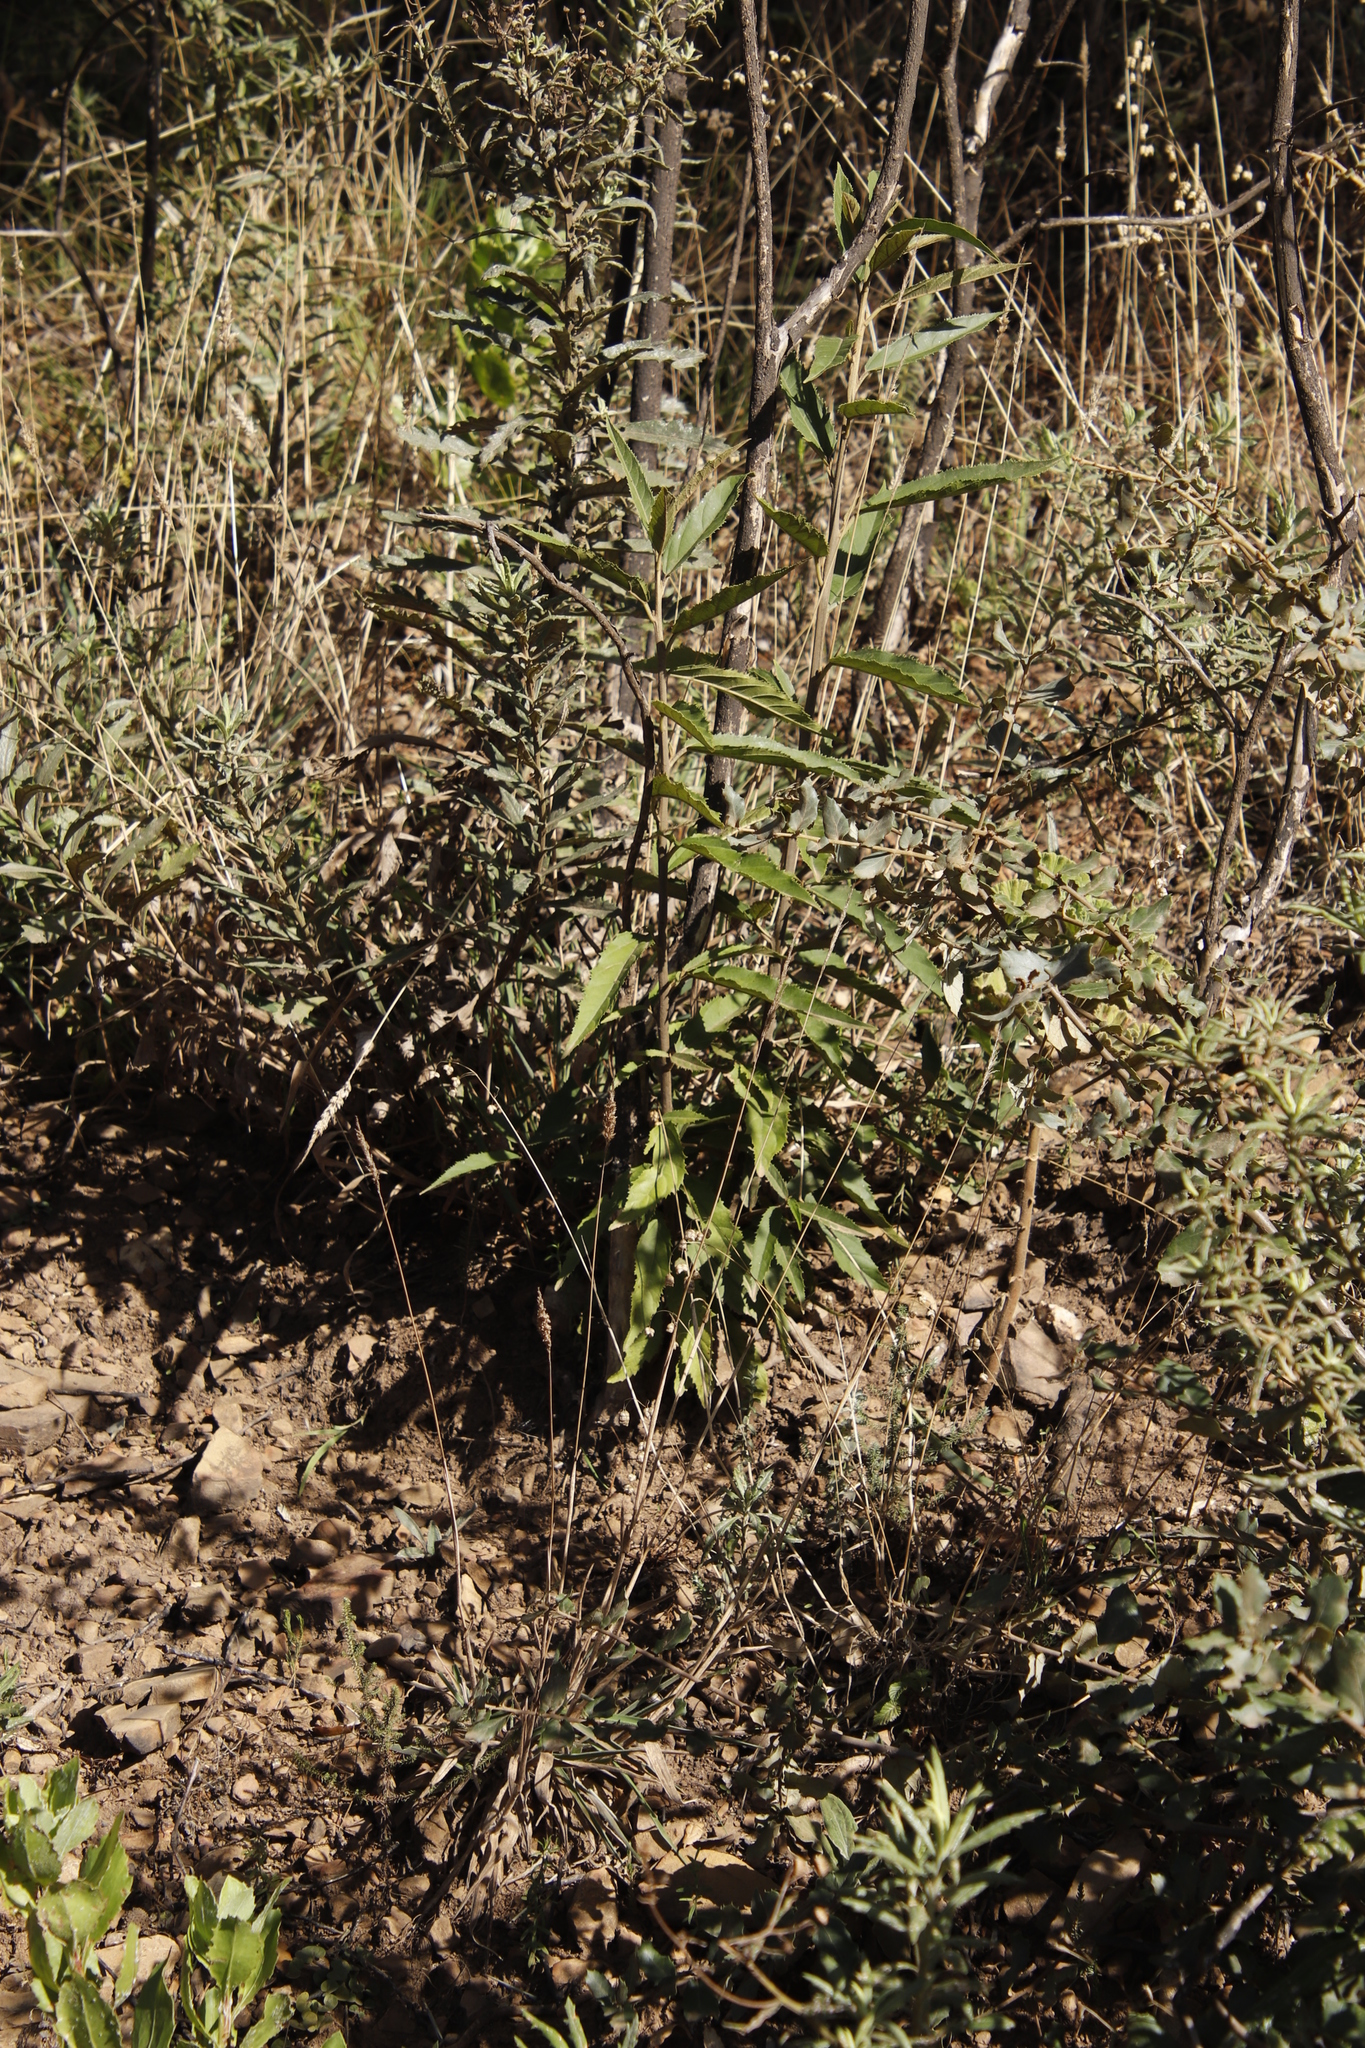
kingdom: Plantae
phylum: Tracheophyta
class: Magnoliopsida
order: Malpighiales
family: Achariaceae
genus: Kiggelaria
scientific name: Kiggelaria africana
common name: Wild peach
